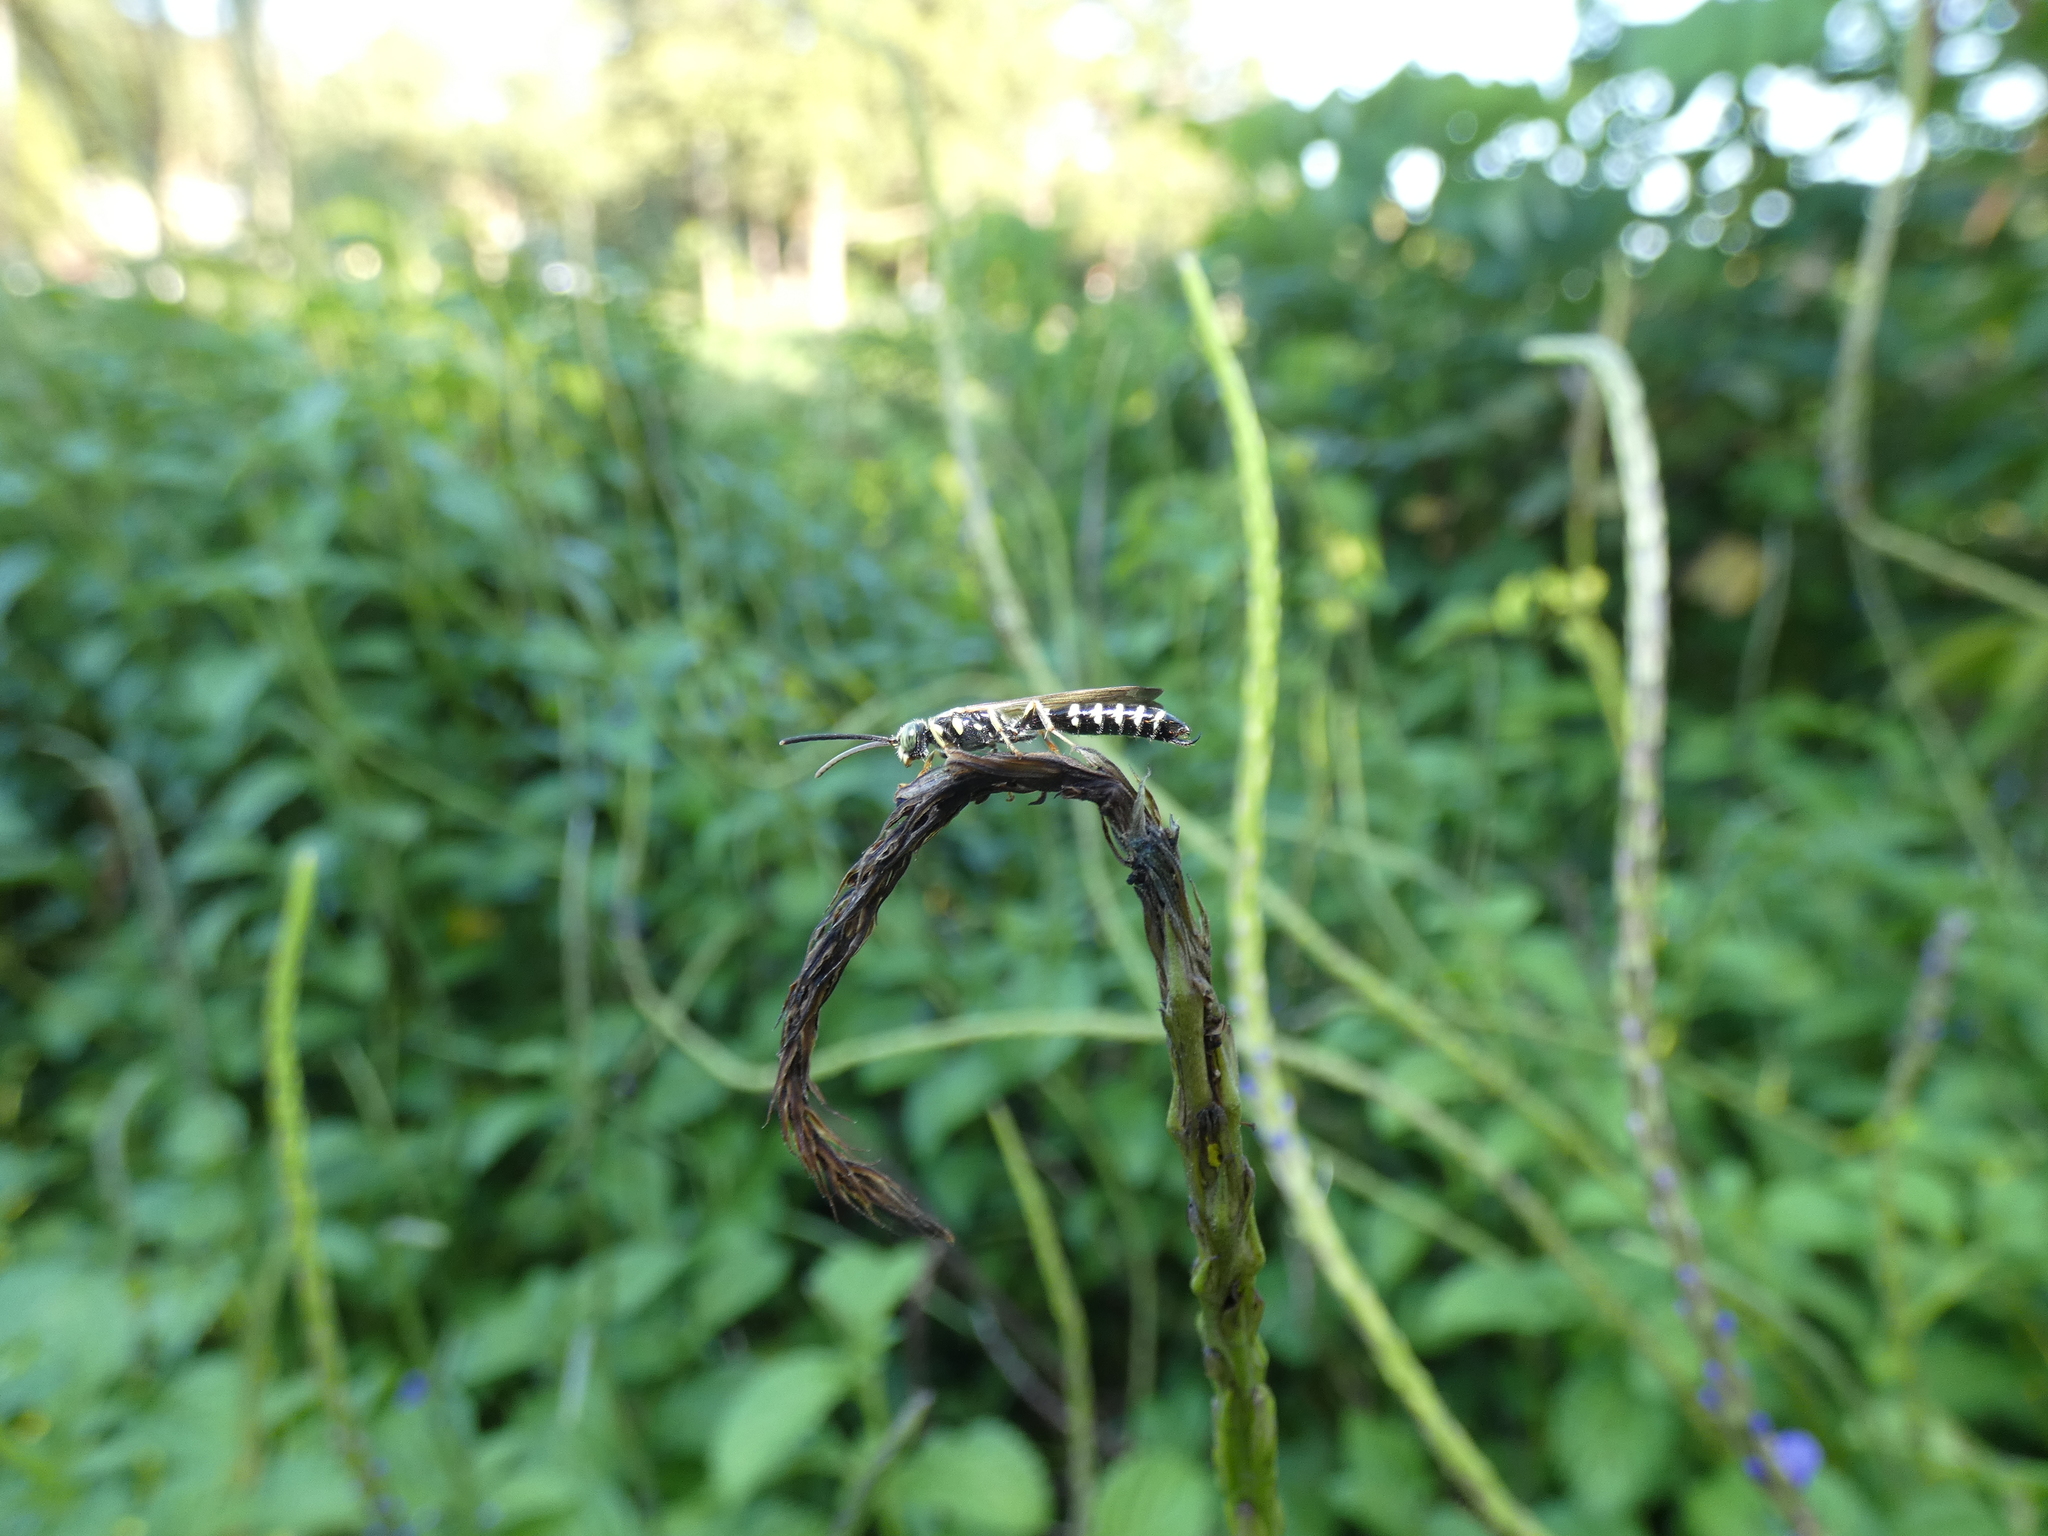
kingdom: Animalia
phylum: Arthropoda
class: Insecta
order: Hymenoptera
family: Tiphiidae
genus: Myzinum
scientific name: Myzinum
